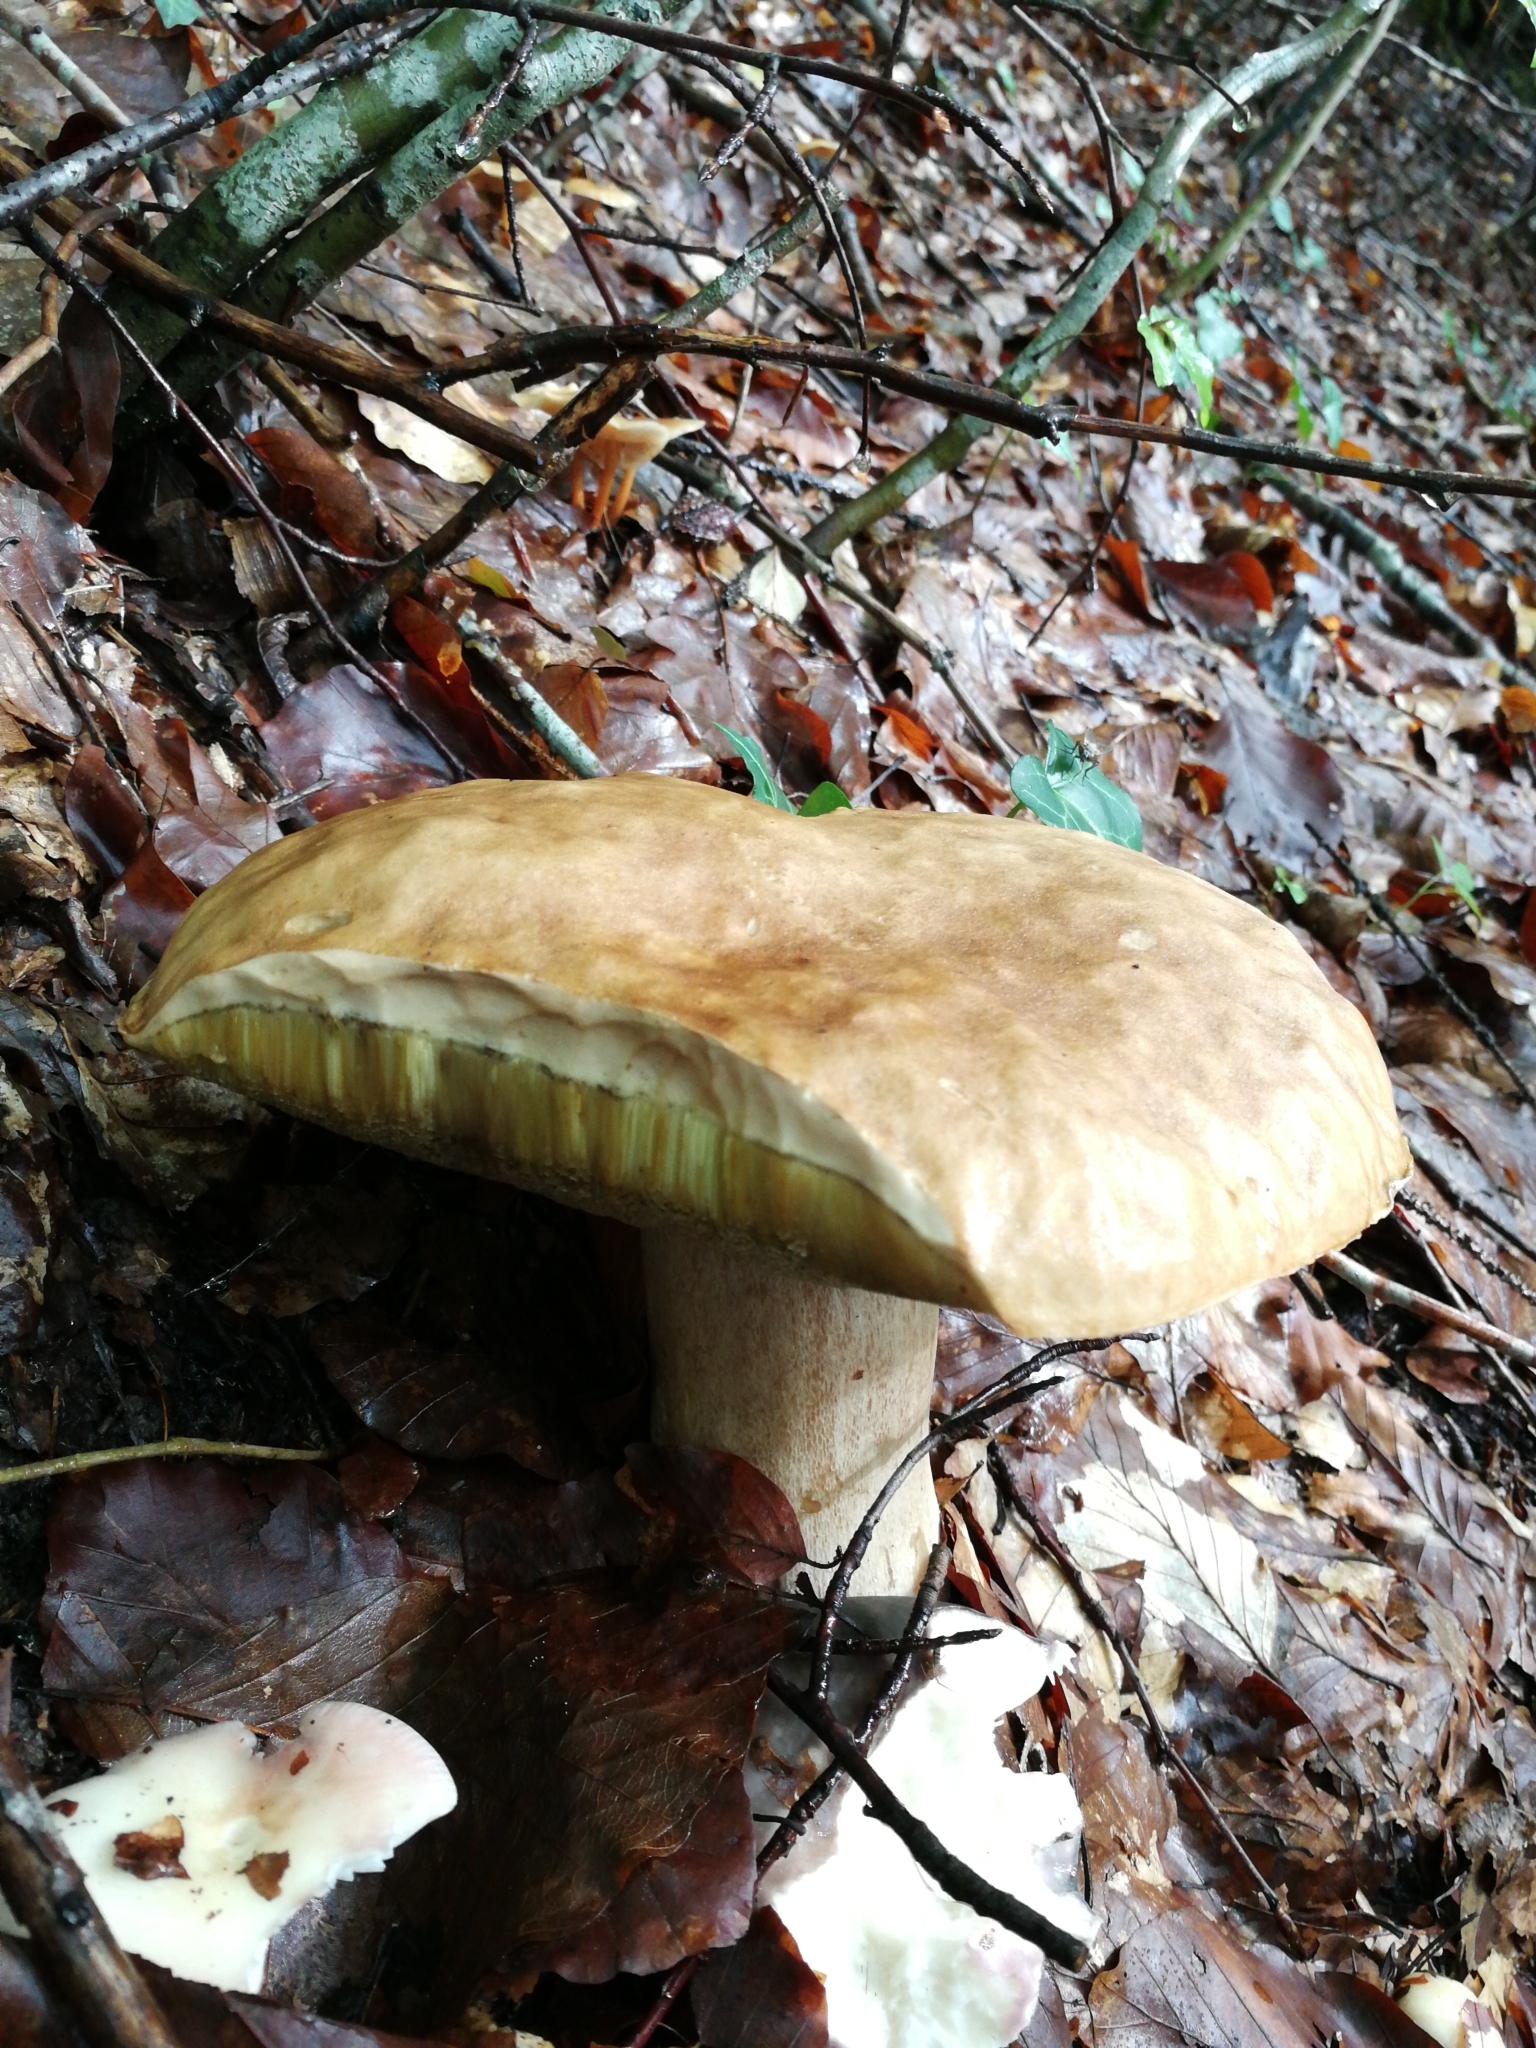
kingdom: Fungi
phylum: Basidiomycota
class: Agaricomycetes
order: Boletales
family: Boletaceae
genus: Boletus
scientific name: Boletus edulis
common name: Cep
